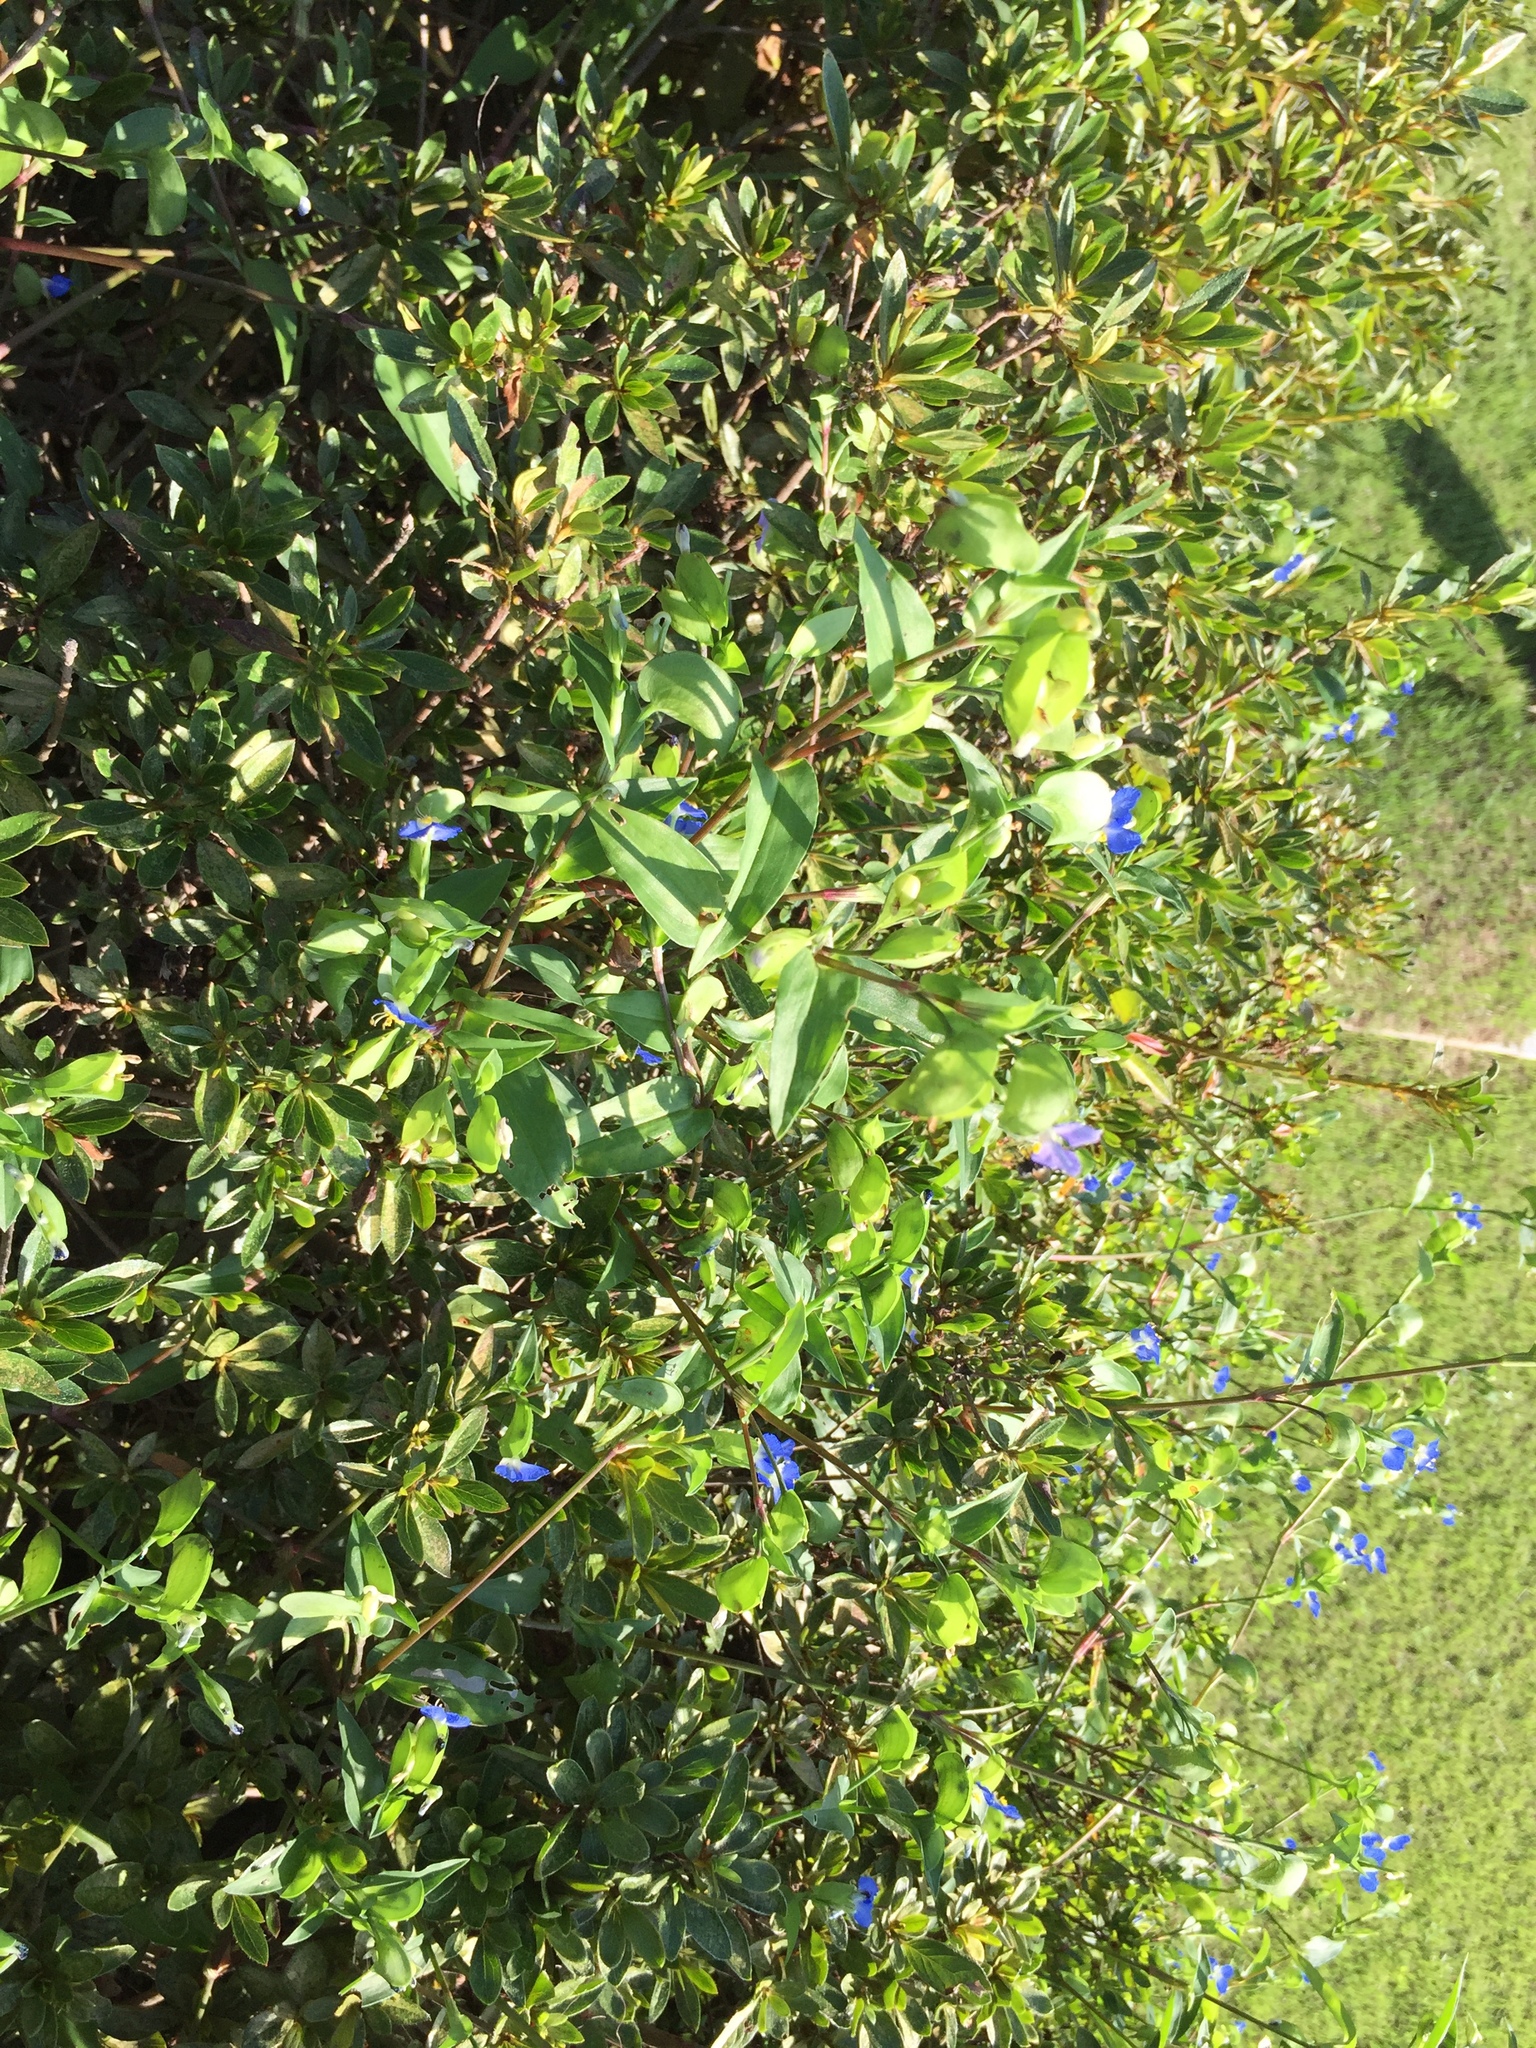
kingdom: Plantae
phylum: Tracheophyta
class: Liliopsida
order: Commelinales
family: Commelinaceae
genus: Commelina
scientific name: Commelina communis
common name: Asiatic dayflower
